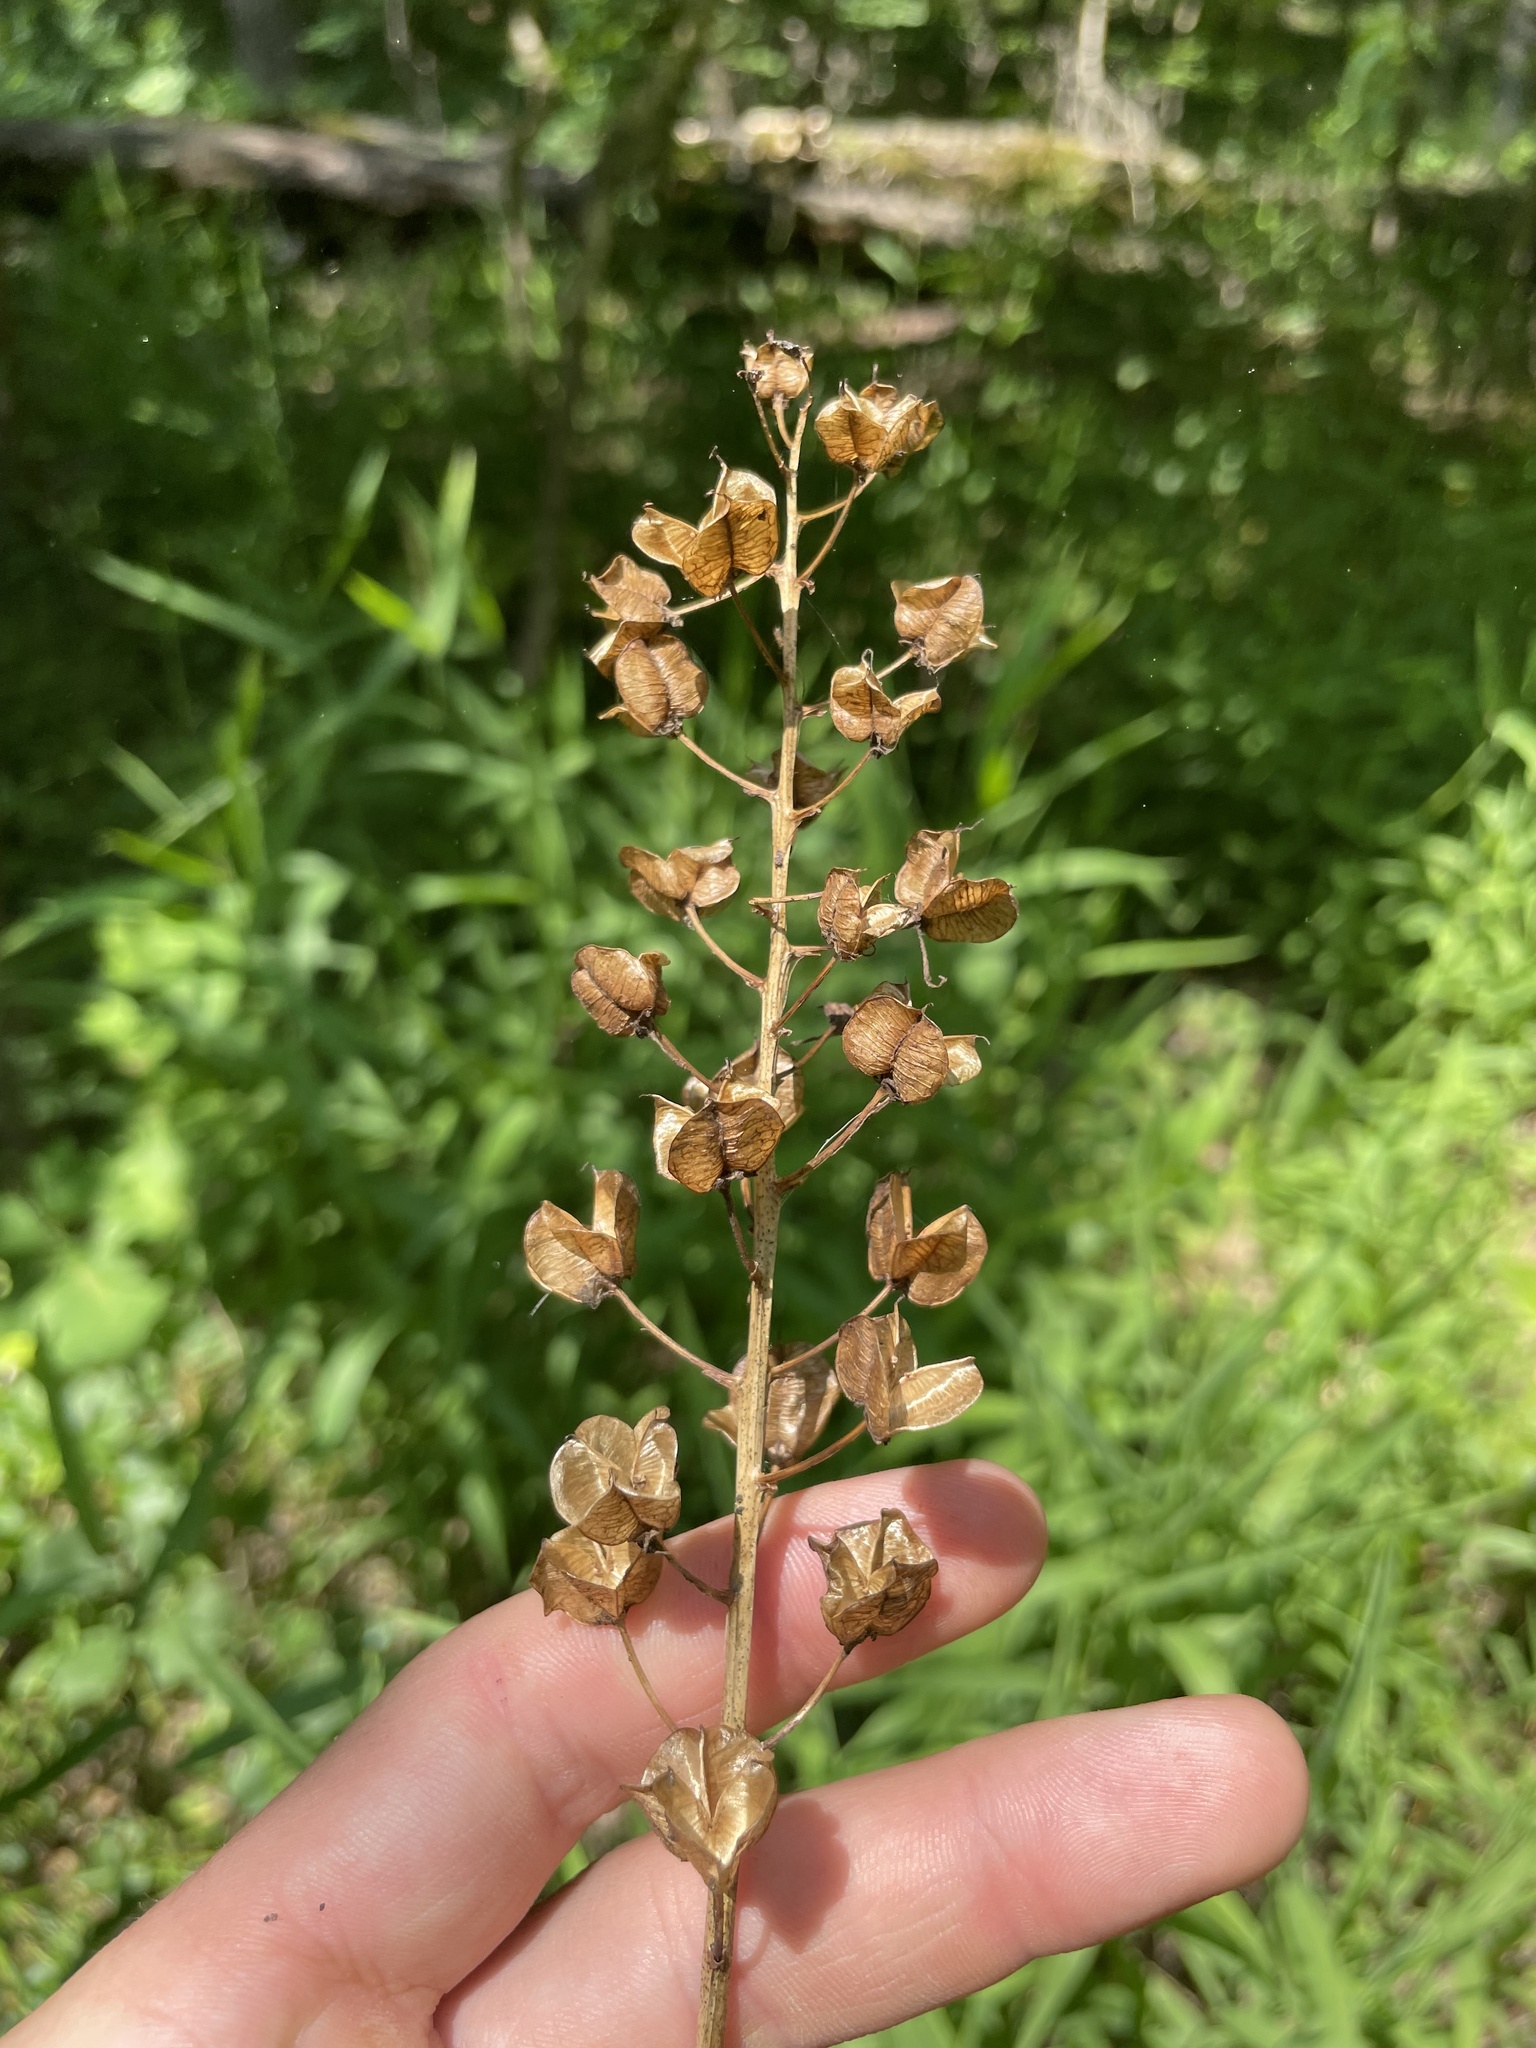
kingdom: Plantae
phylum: Tracheophyta
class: Liliopsida
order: Asparagales
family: Asparagaceae
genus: Camassia
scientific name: Camassia scilloides
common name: Wild hyacinth
